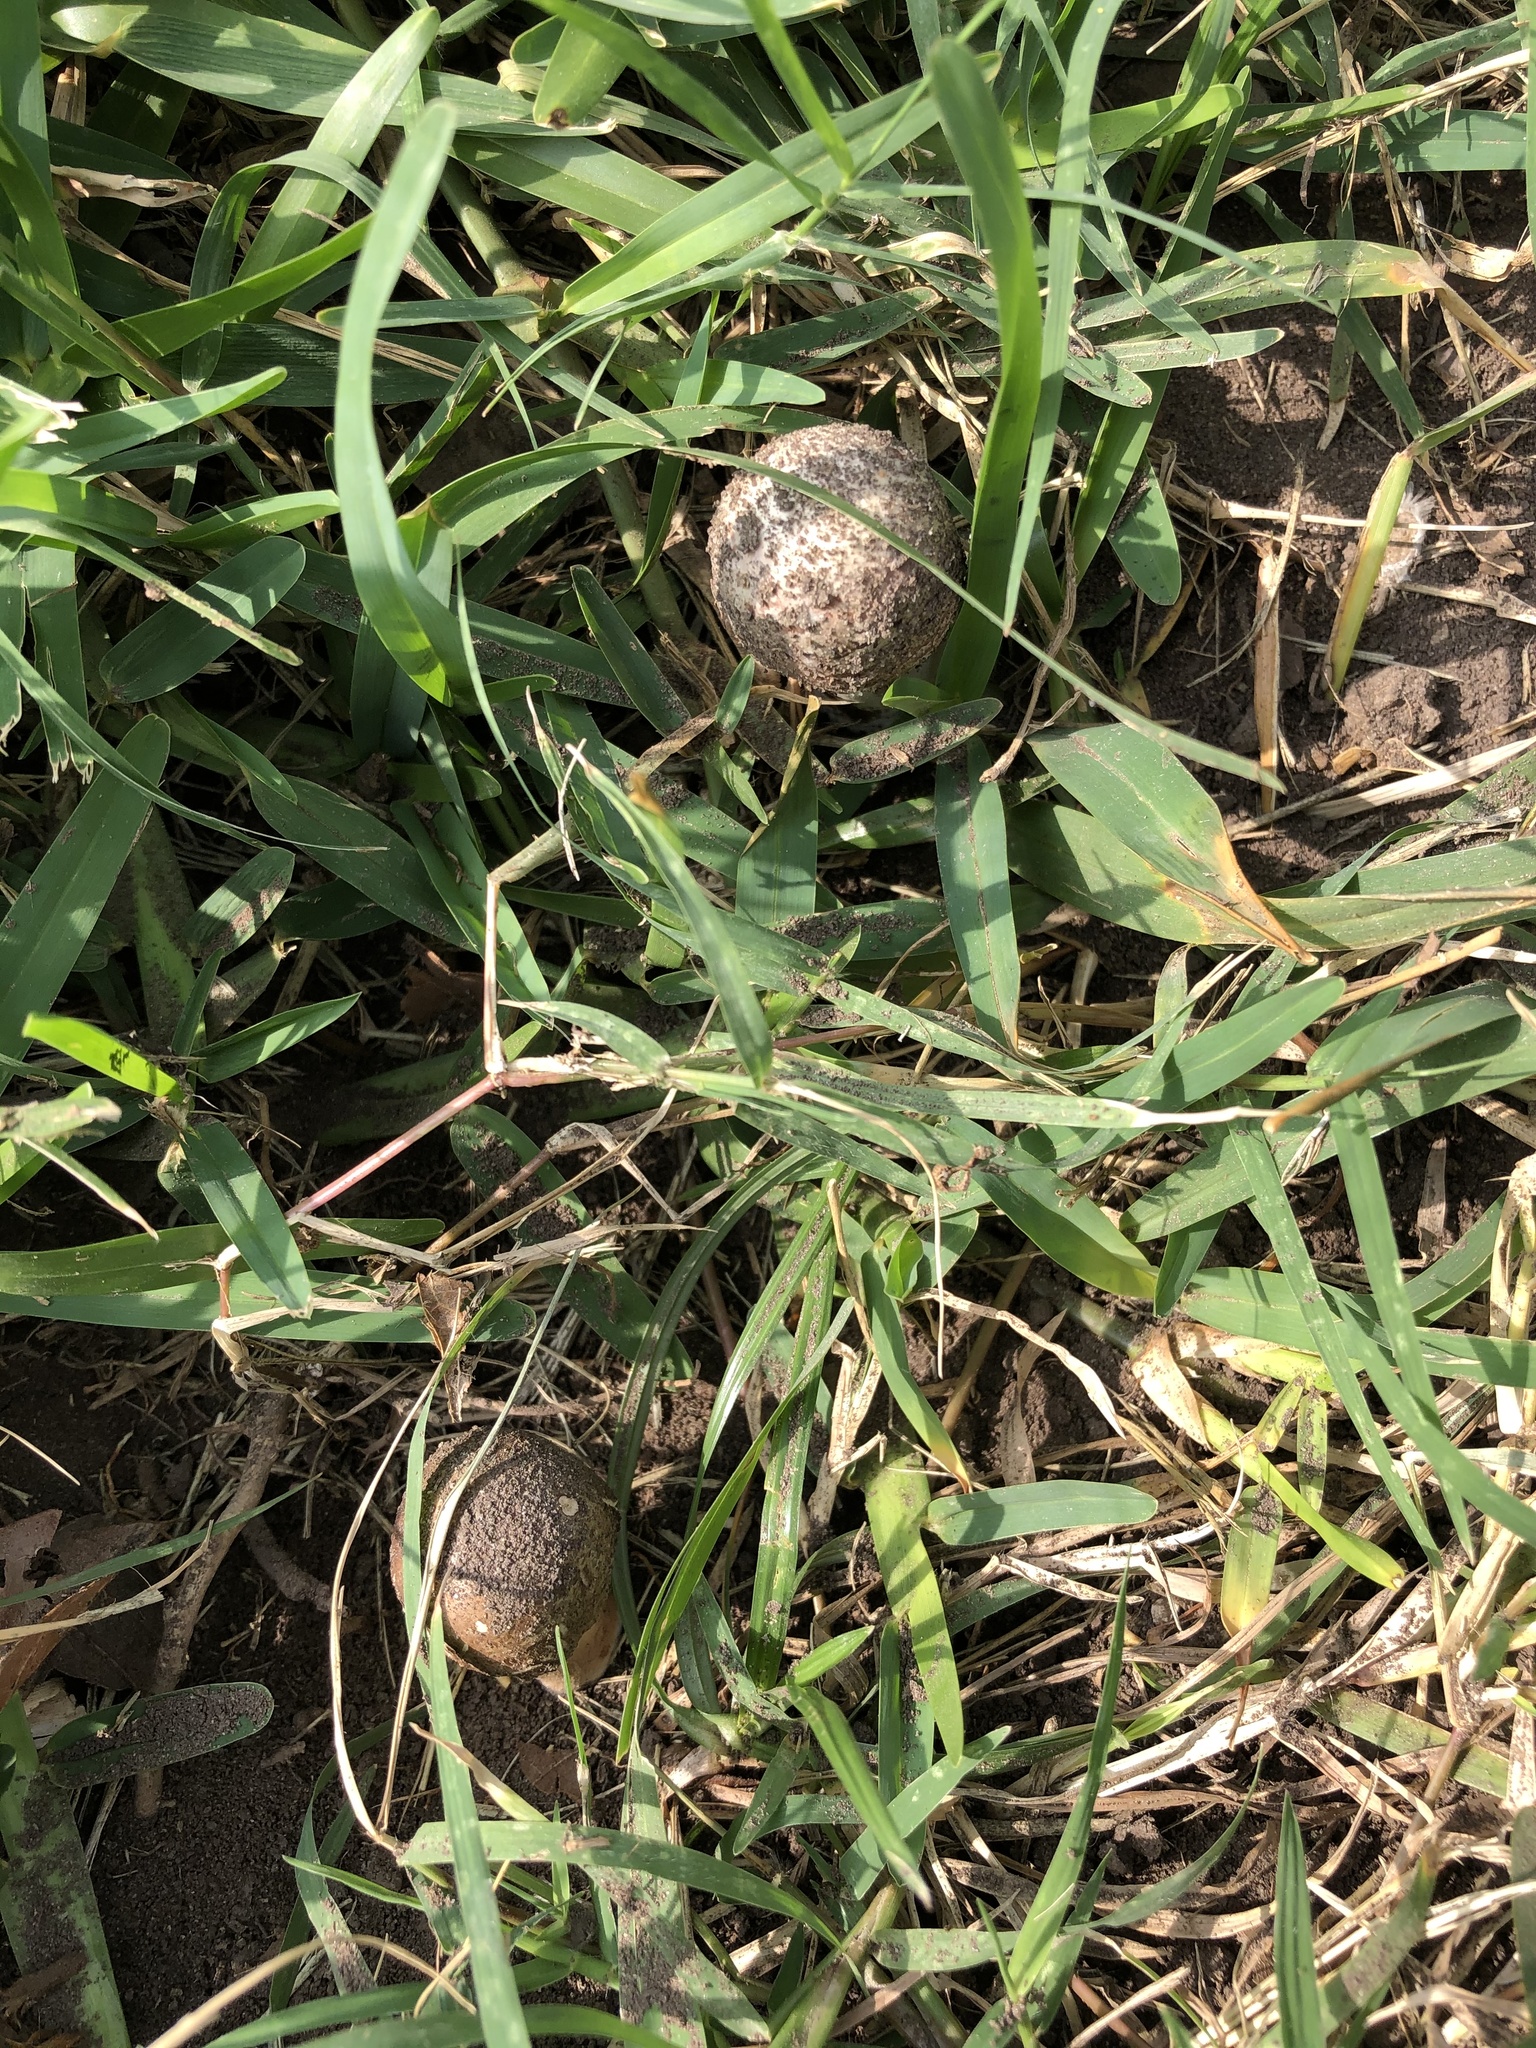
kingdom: Fungi
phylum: Basidiomycota
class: Agaricomycetes
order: Agaricales
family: Agaricaceae
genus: Chlorophyllum
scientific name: Chlorophyllum molybdites
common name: False parasol
